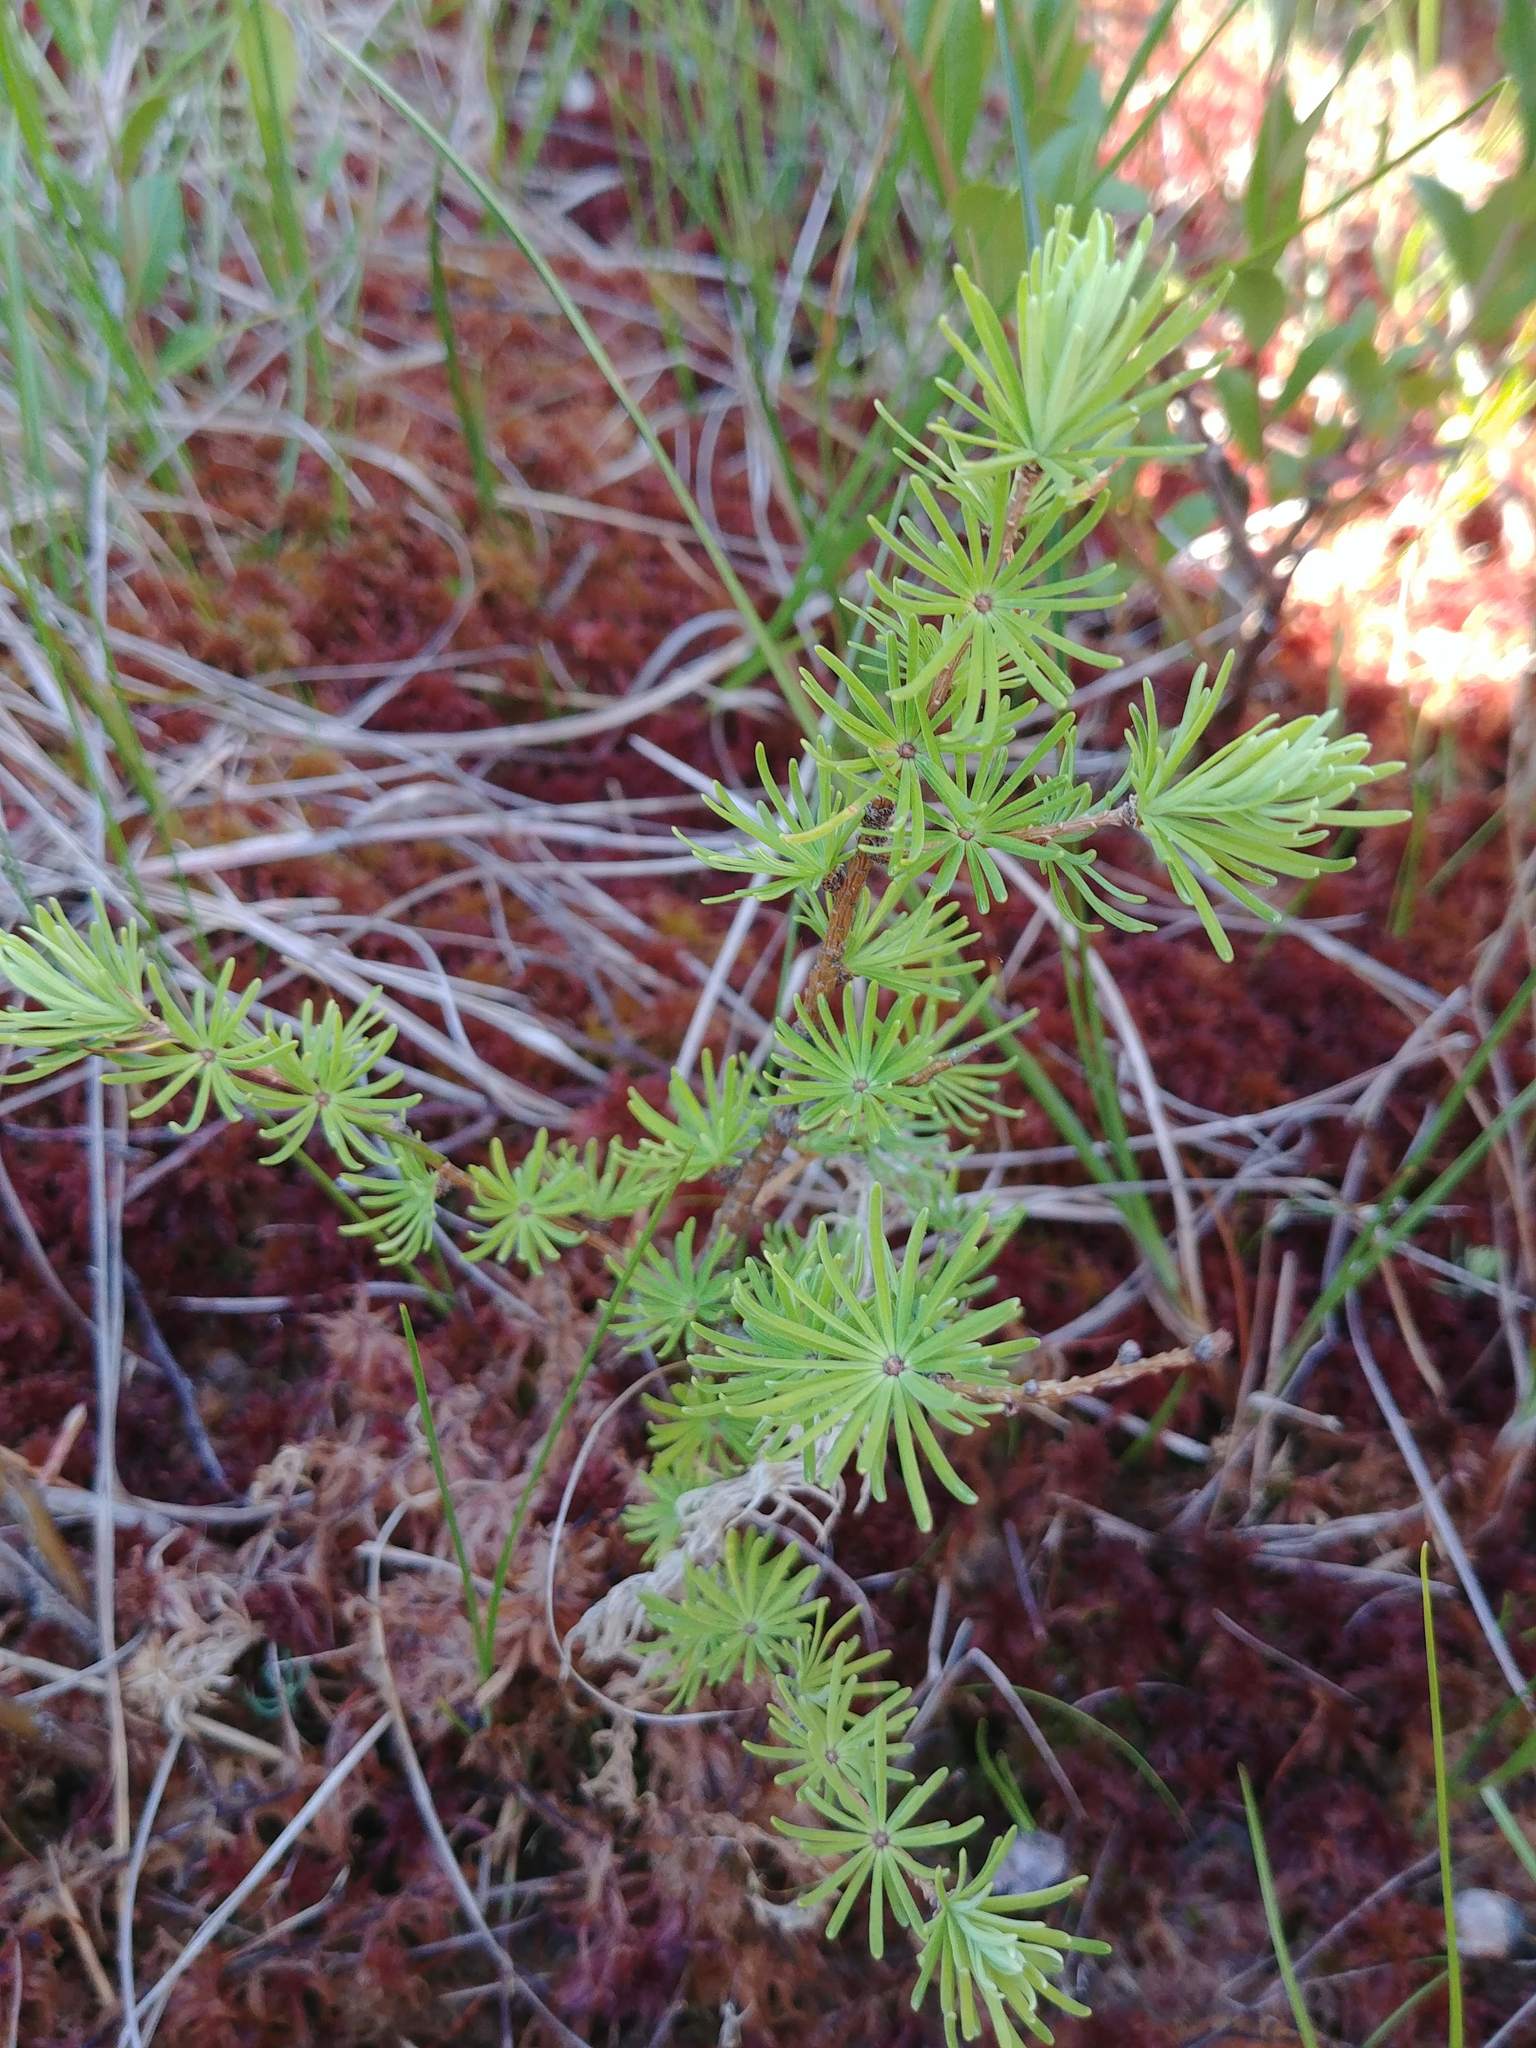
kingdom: Plantae
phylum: Tracheophyta
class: Pinopsida
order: Pinales
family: Pinaceae
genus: Larix
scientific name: Larix laricina
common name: American larch
